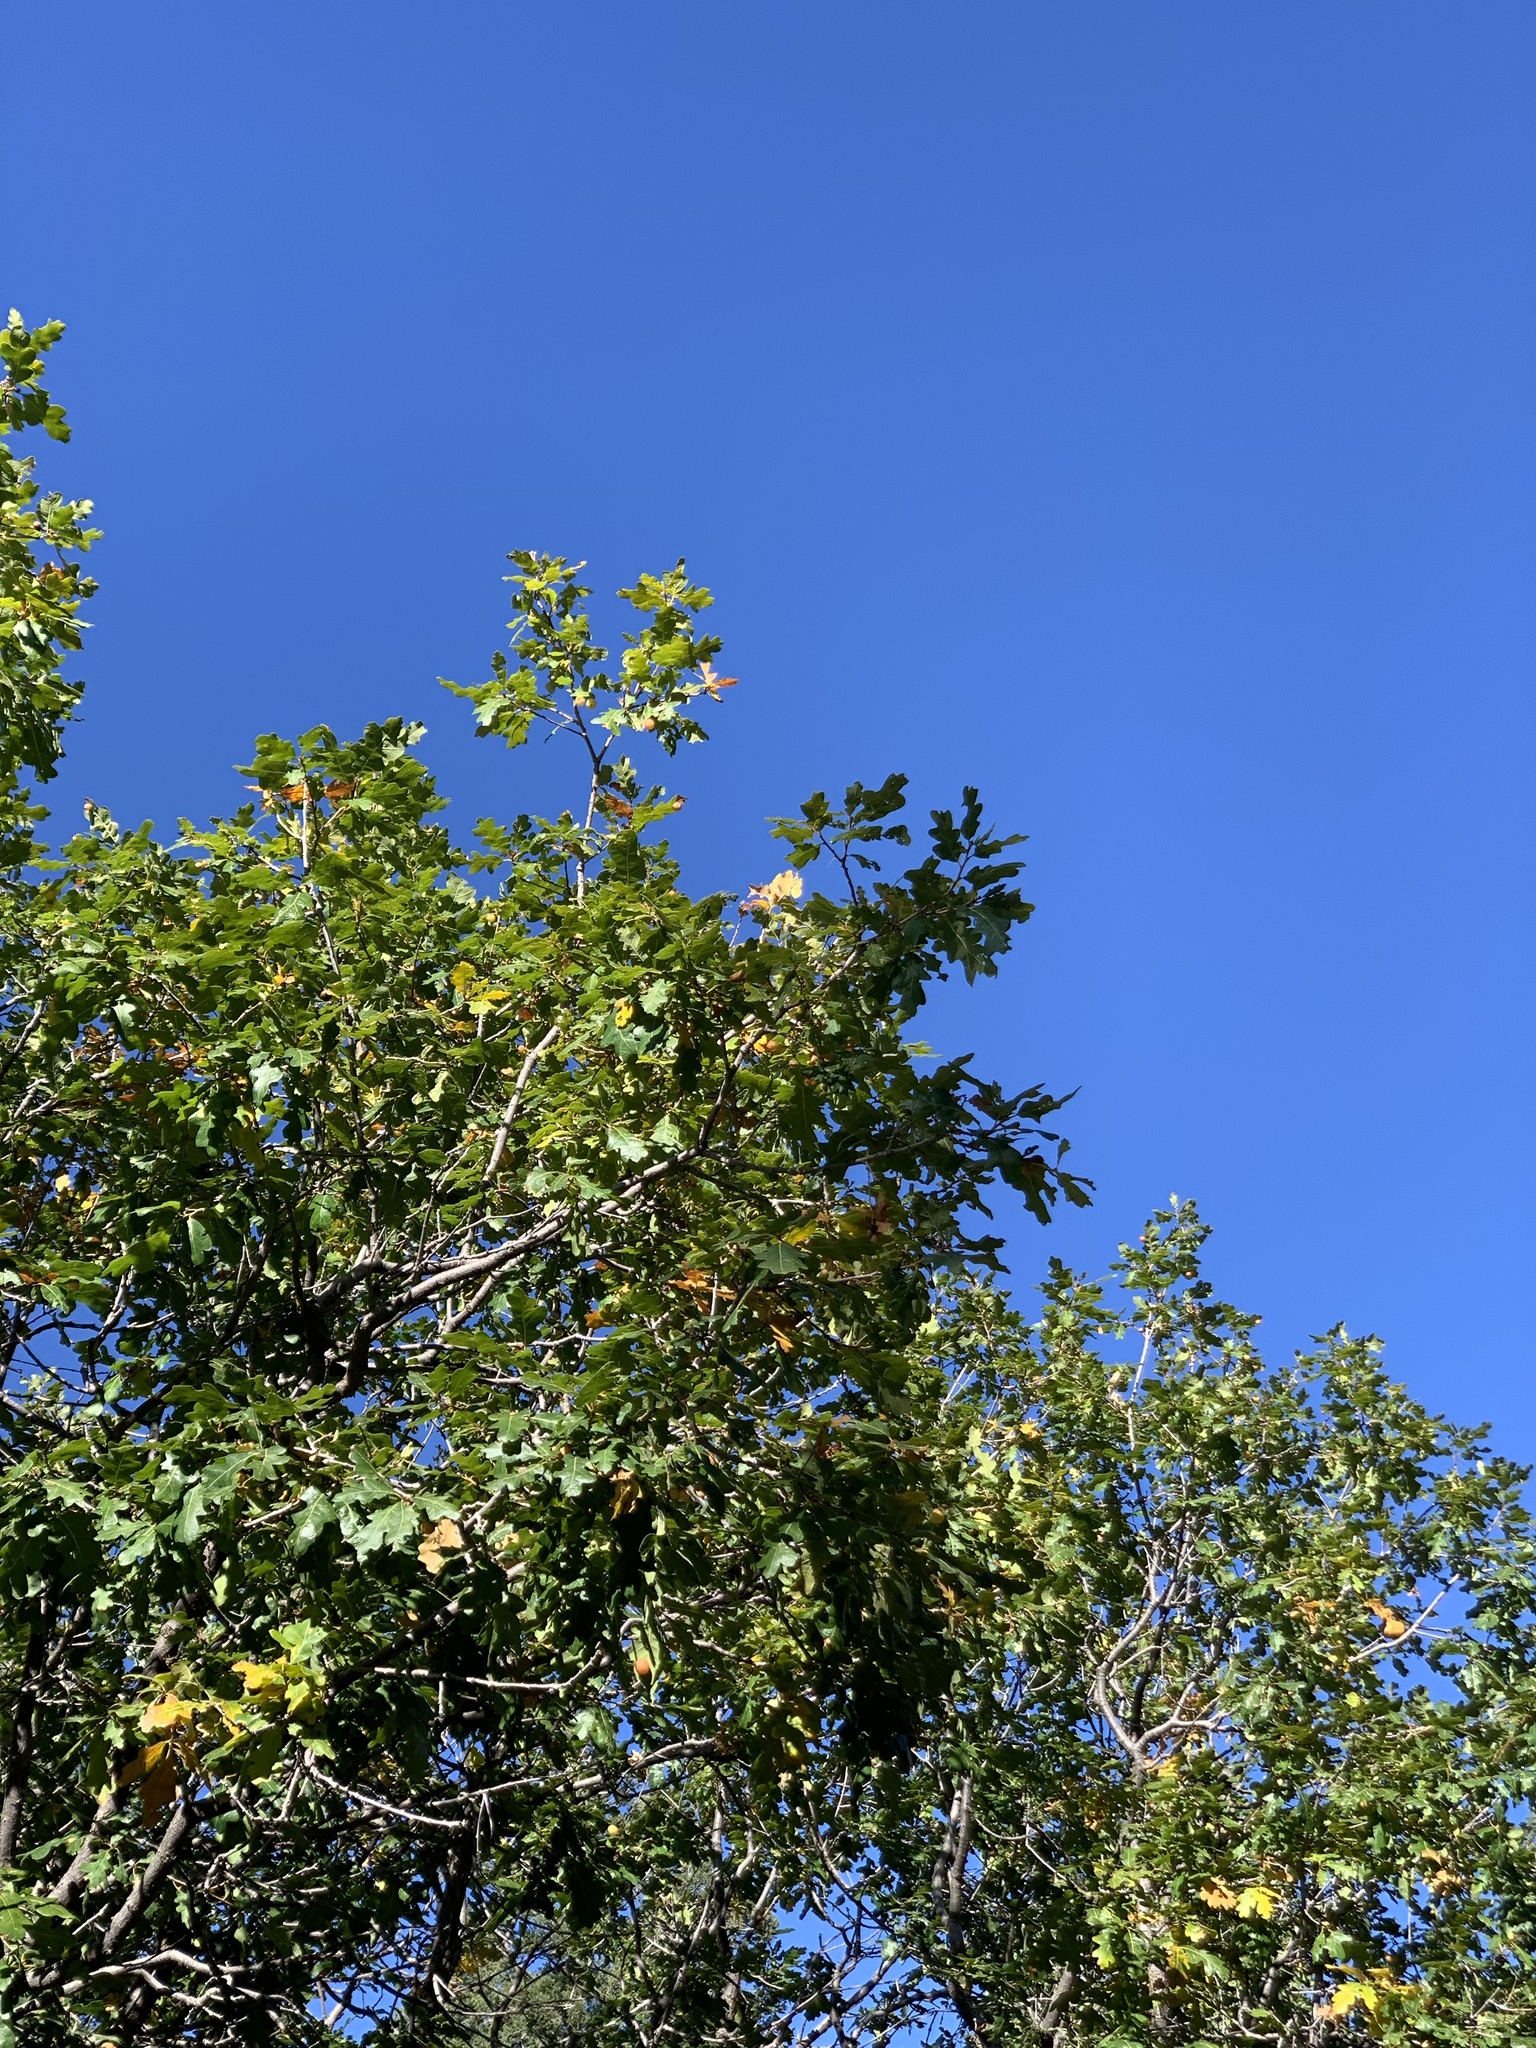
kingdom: Plantae
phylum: Tracheophyta
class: Magnoliopsida
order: Fagales
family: Fagaceae
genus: Quercus
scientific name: Quercus gambelii
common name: Gambel oak
